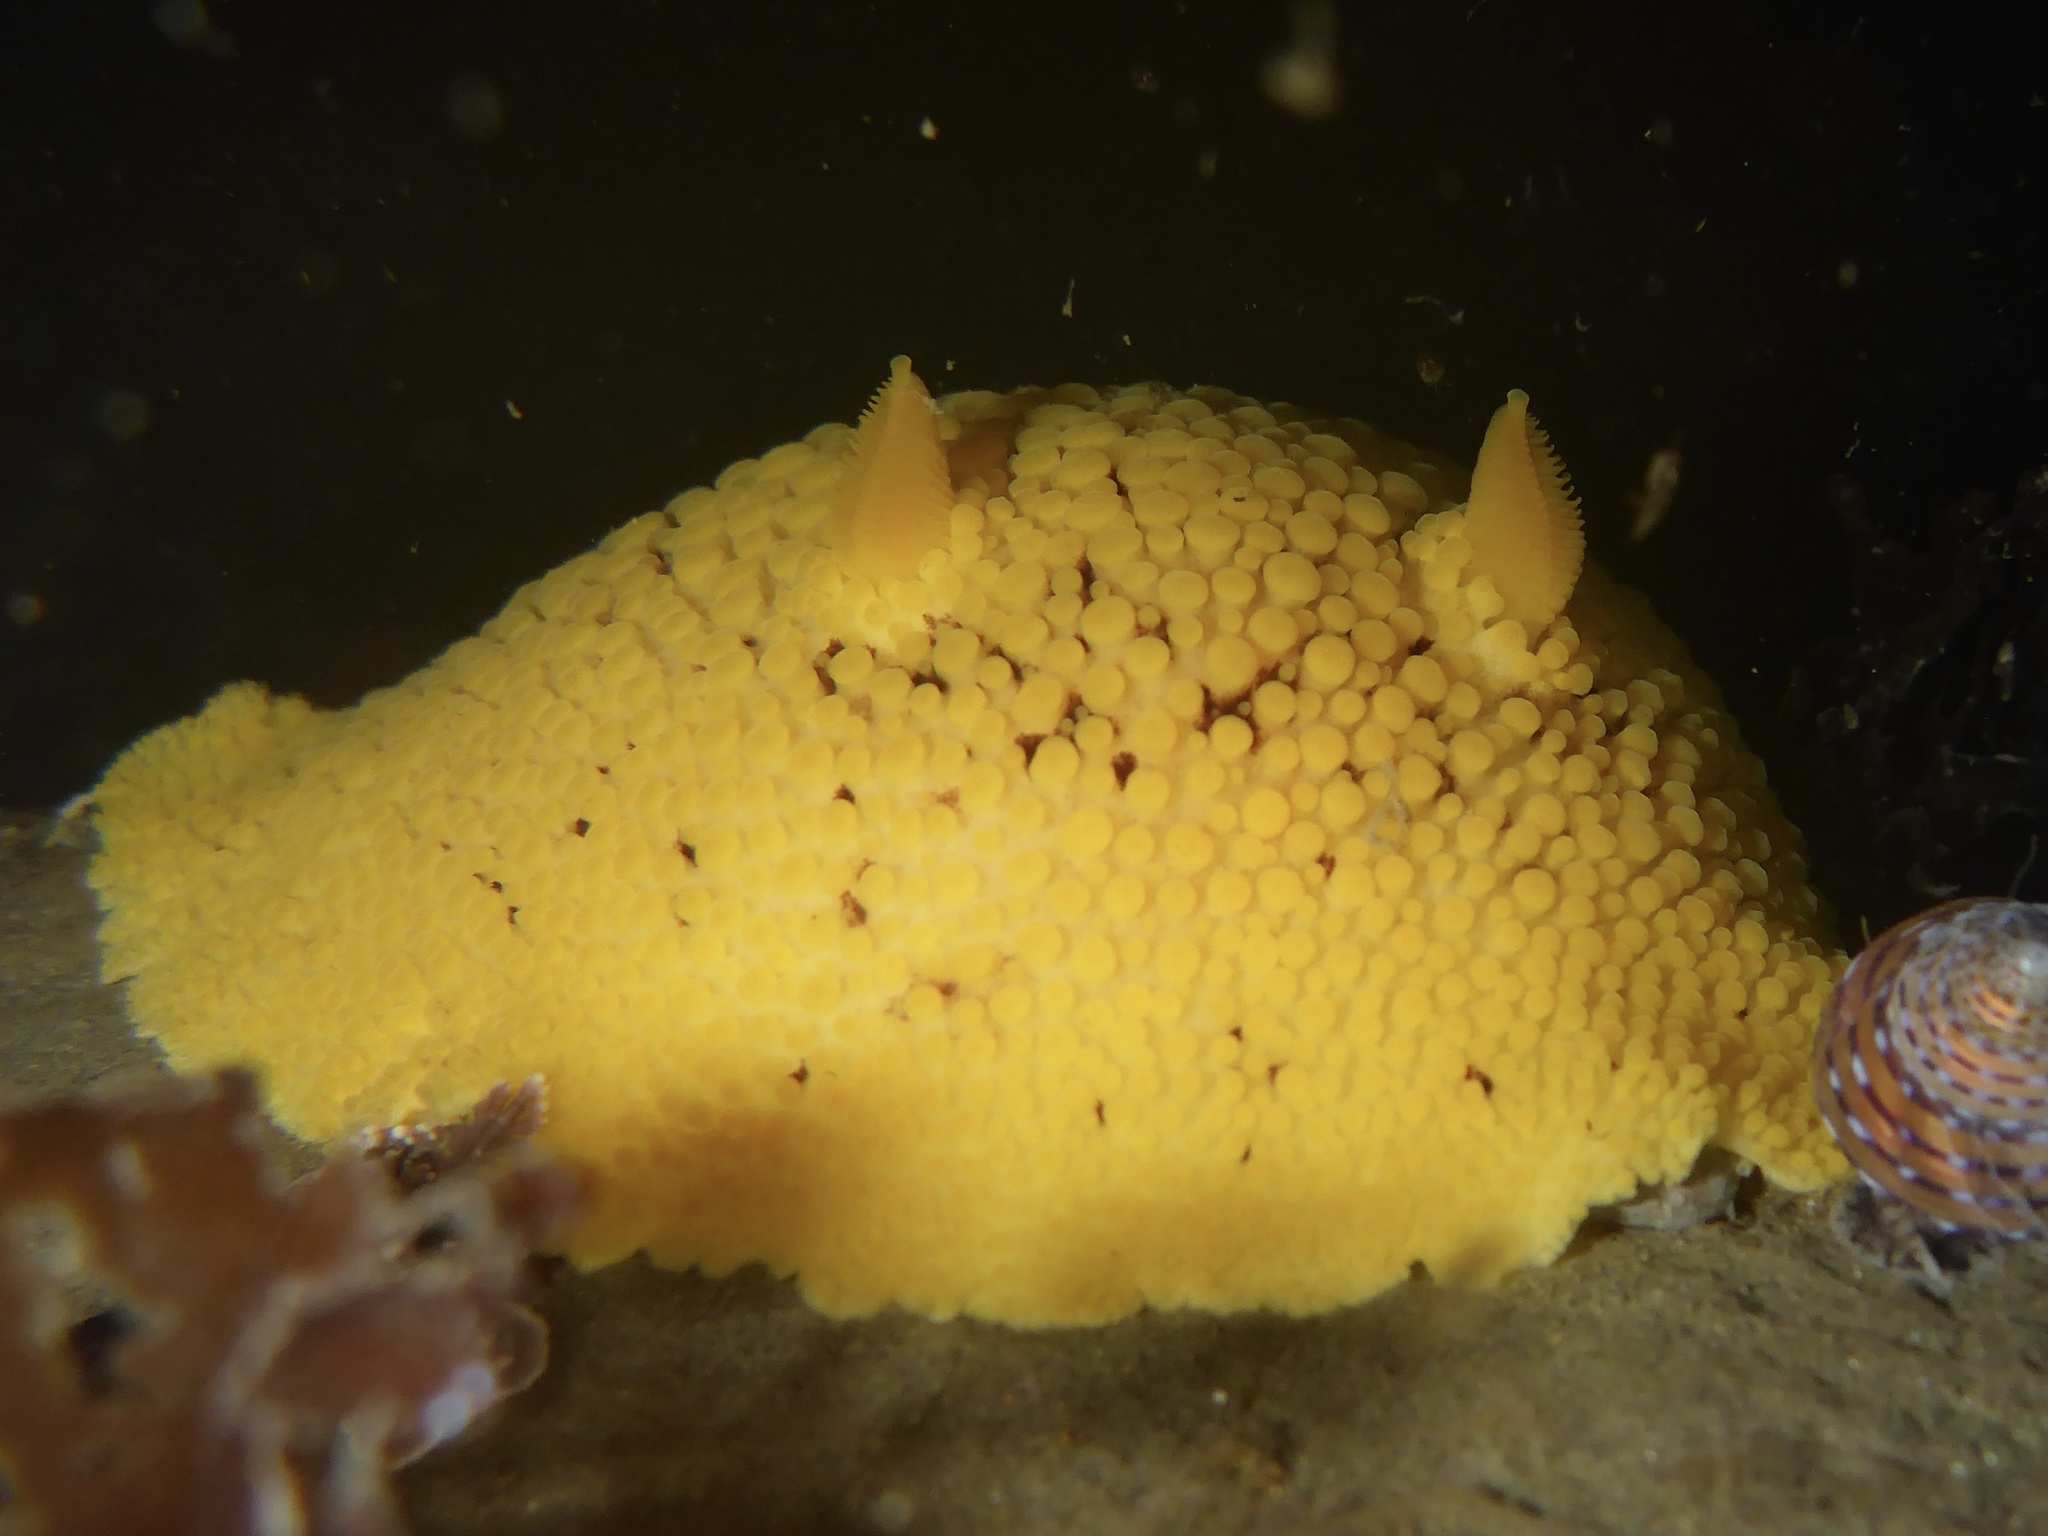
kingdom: Animalia
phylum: Mollusca
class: Gastropoda
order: Nudibranchia
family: Discodorididae
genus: Peltodoris
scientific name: Peltodoris nobilis
